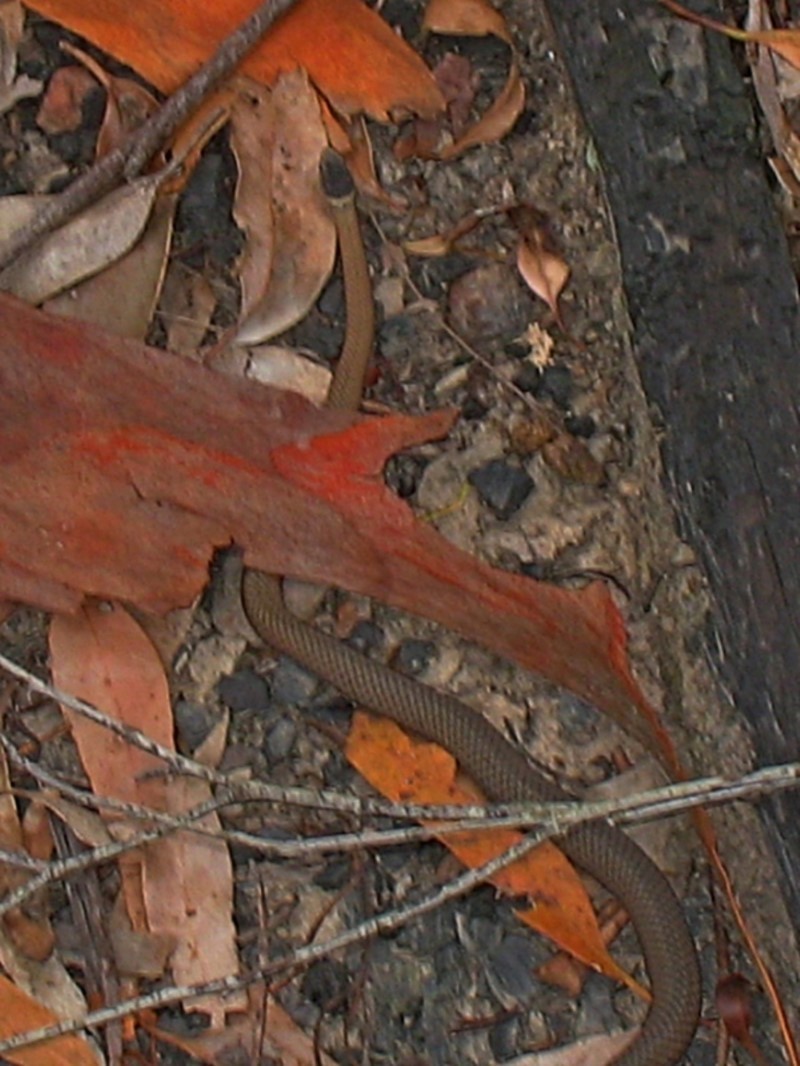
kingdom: Animalia
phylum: Chordata
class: Squamata
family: Elapidae
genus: Drysdalia
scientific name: Drysdalia rhodogaster
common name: Mustard-bellied snake
